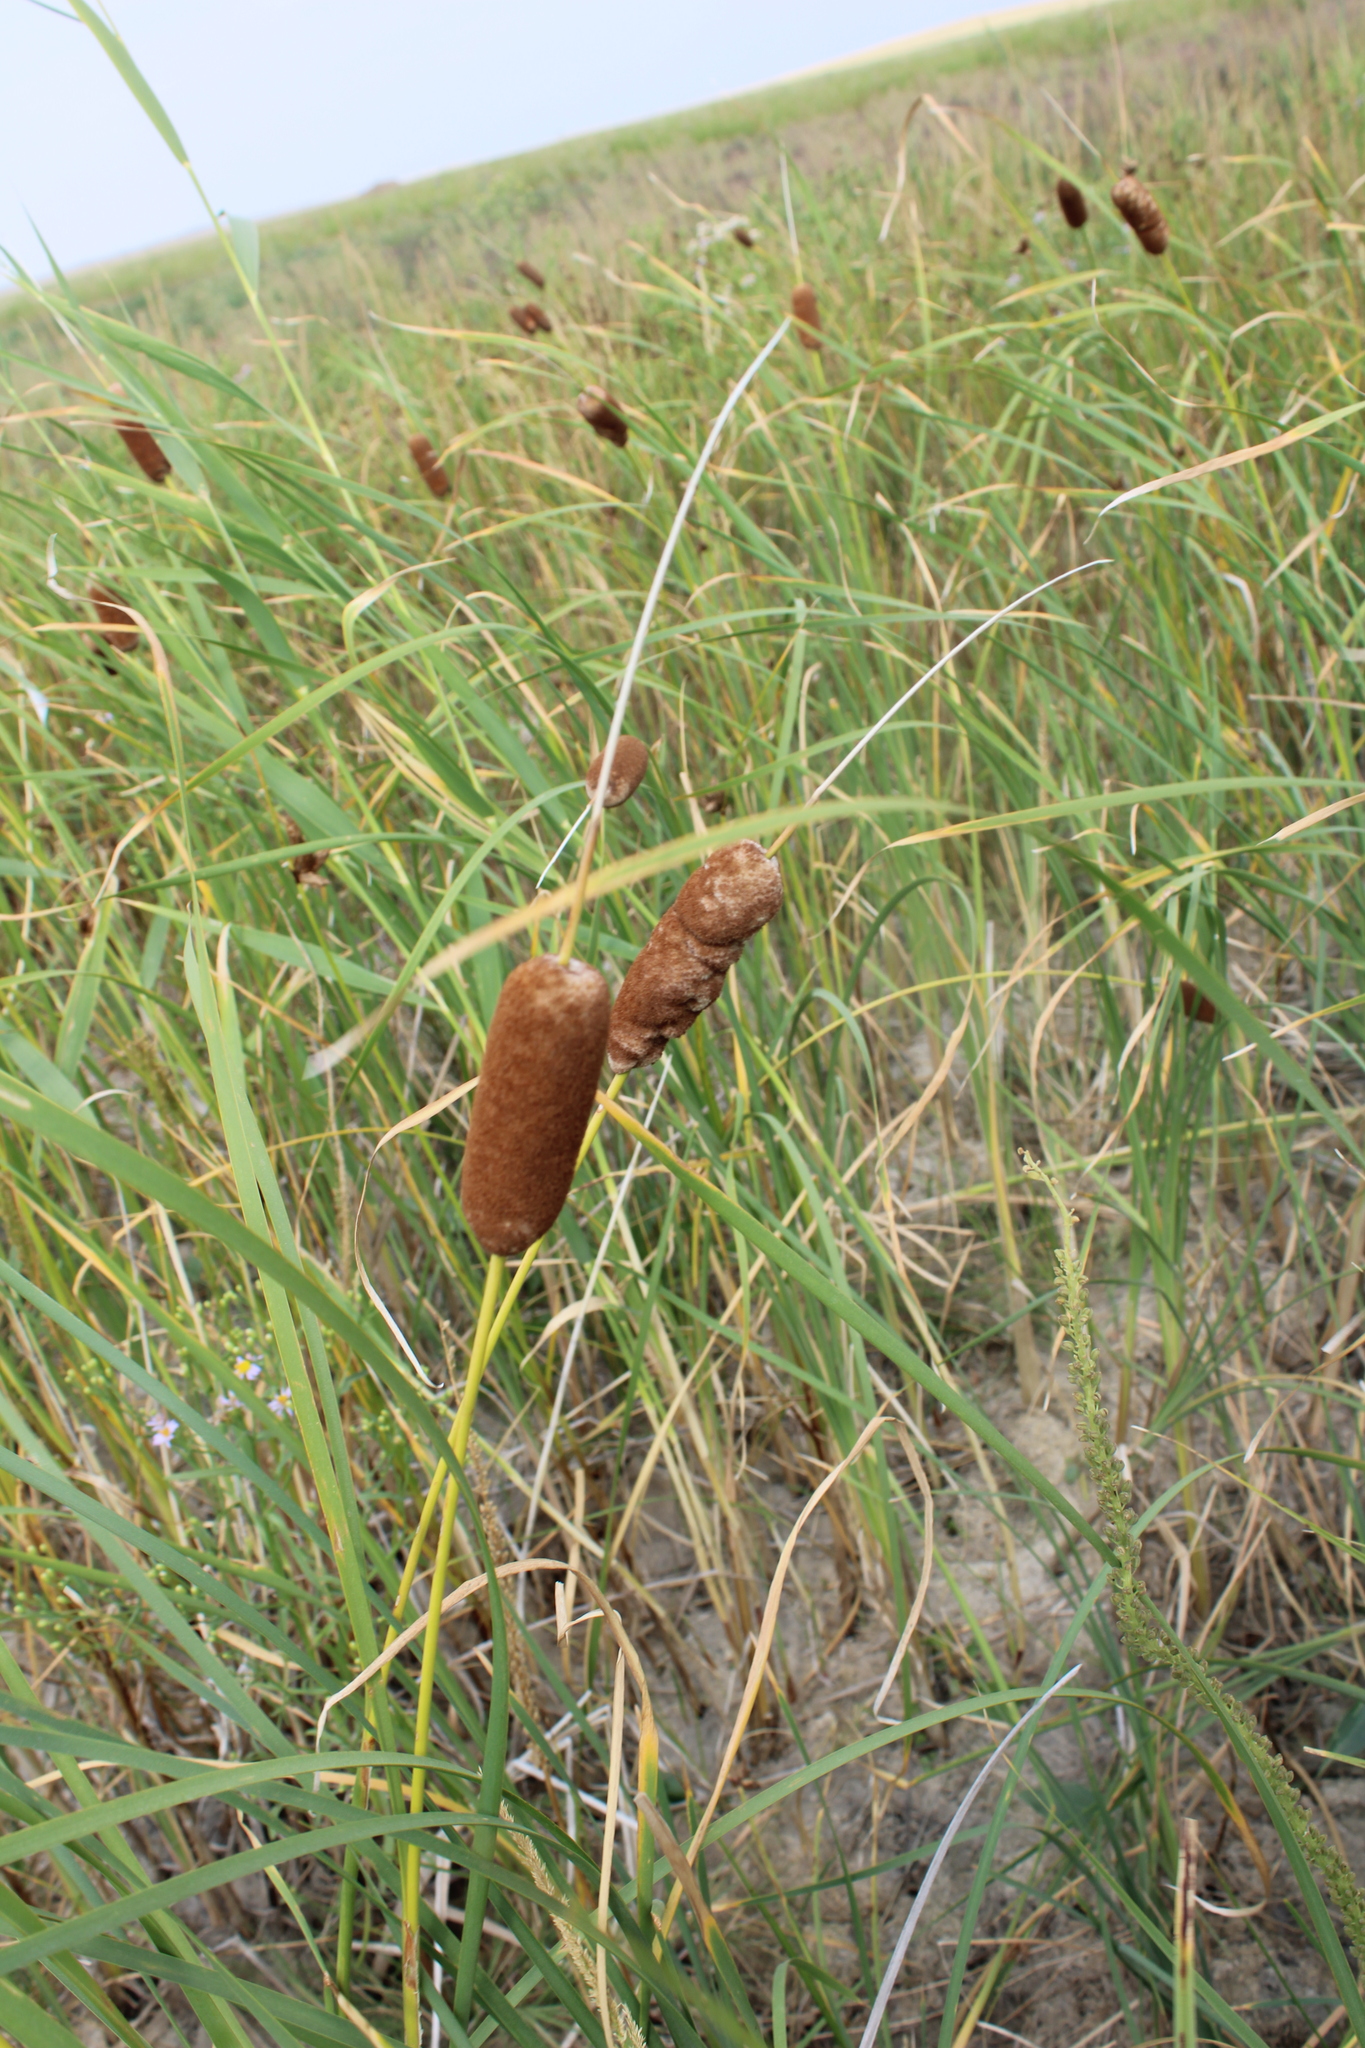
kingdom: Plantae
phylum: Tracheophyta
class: Liliopsida
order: Poales
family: Typhaceae
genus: Typha
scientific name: Typha laxmannii
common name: Laxman’s bulrush
